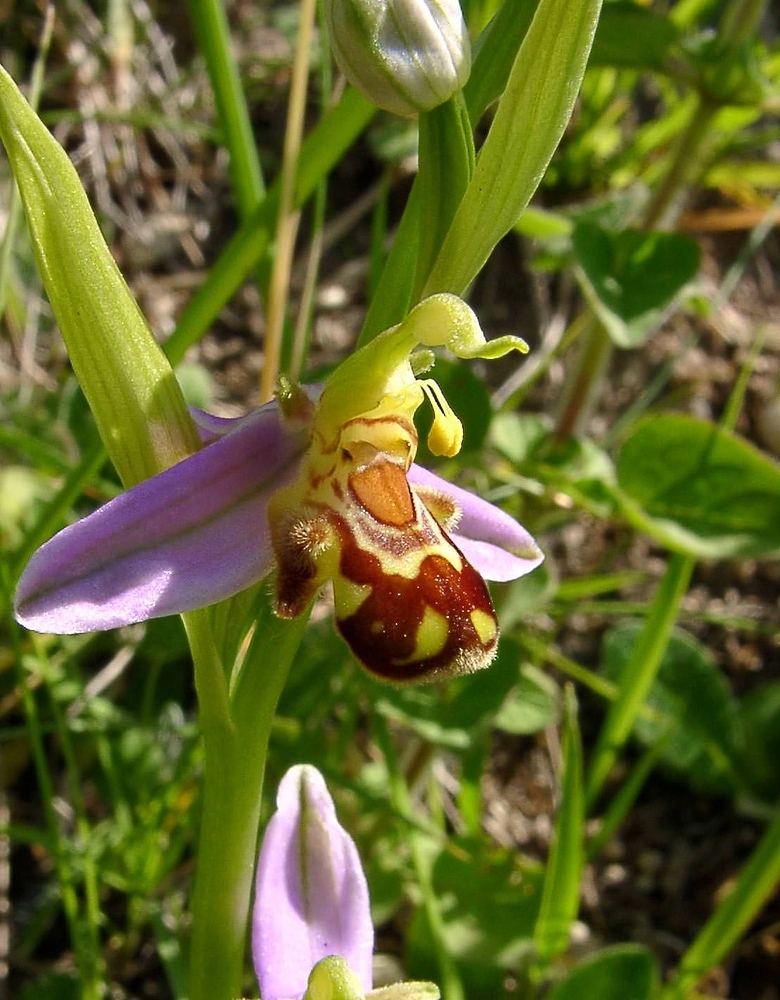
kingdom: Plantae
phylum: Tracheophyta
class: Liliopsida
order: Asparagales
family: Orchidaceae
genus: Ophrys
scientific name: Ophrys apifera
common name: Bee orchid
